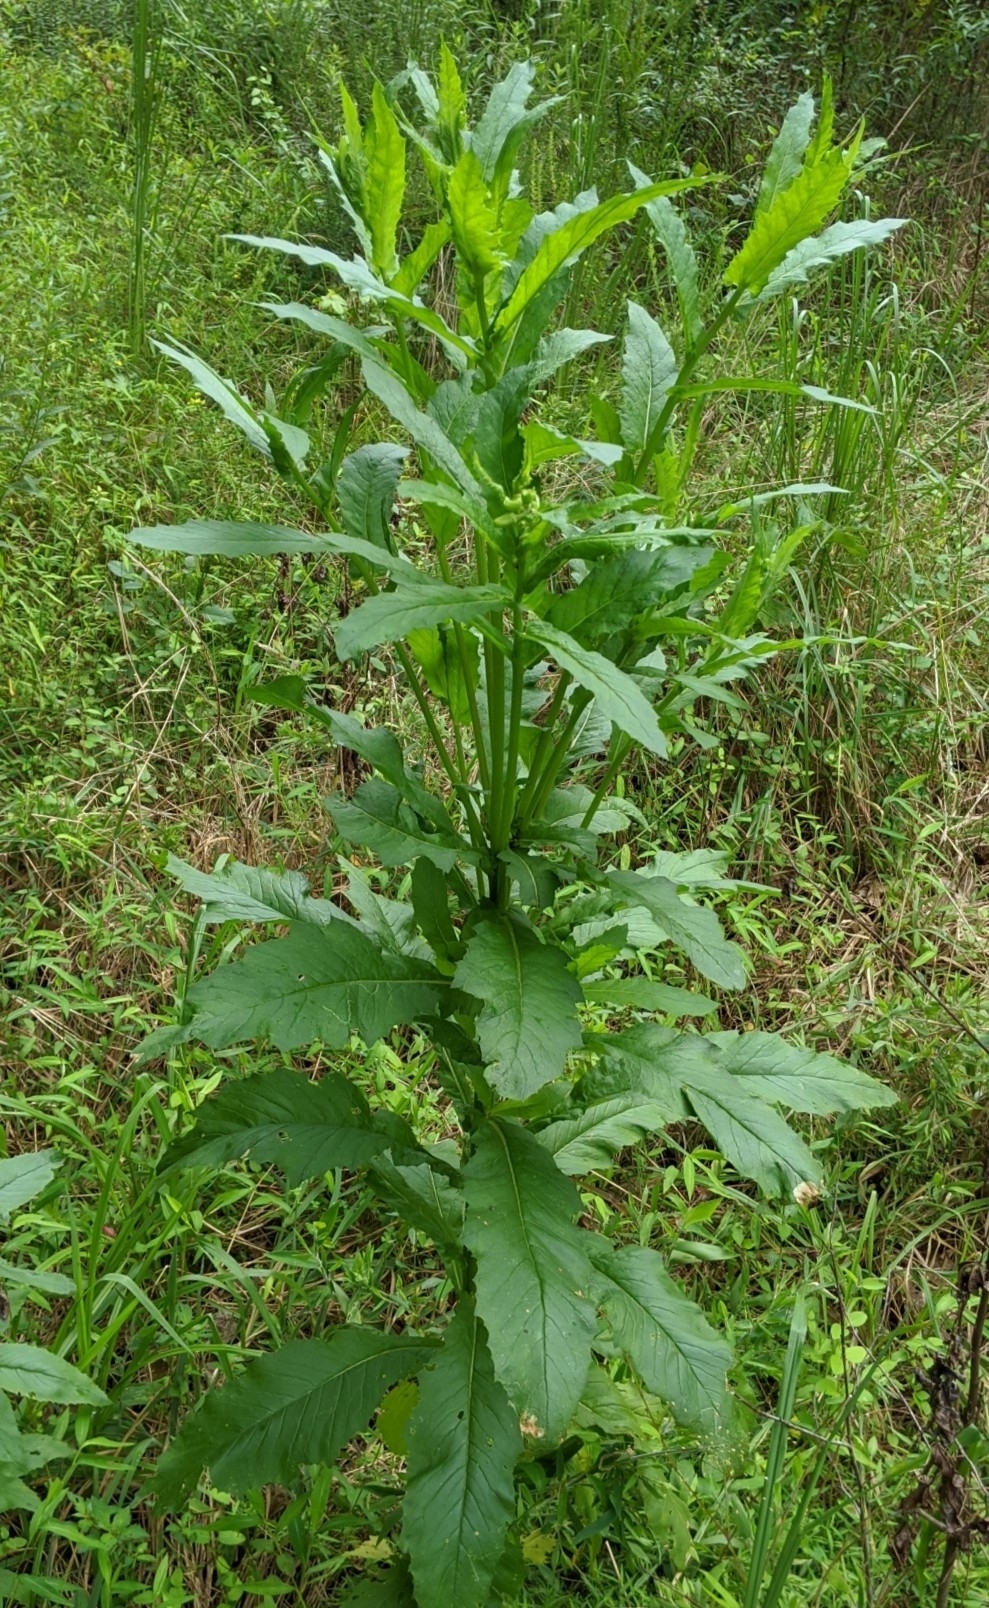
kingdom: Plantae
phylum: Tracheophyta
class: Magnoliopsida
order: Asterales
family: Asteraceae
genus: Erechtites
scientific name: Erechtites hieraciifolius
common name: American burnweed
